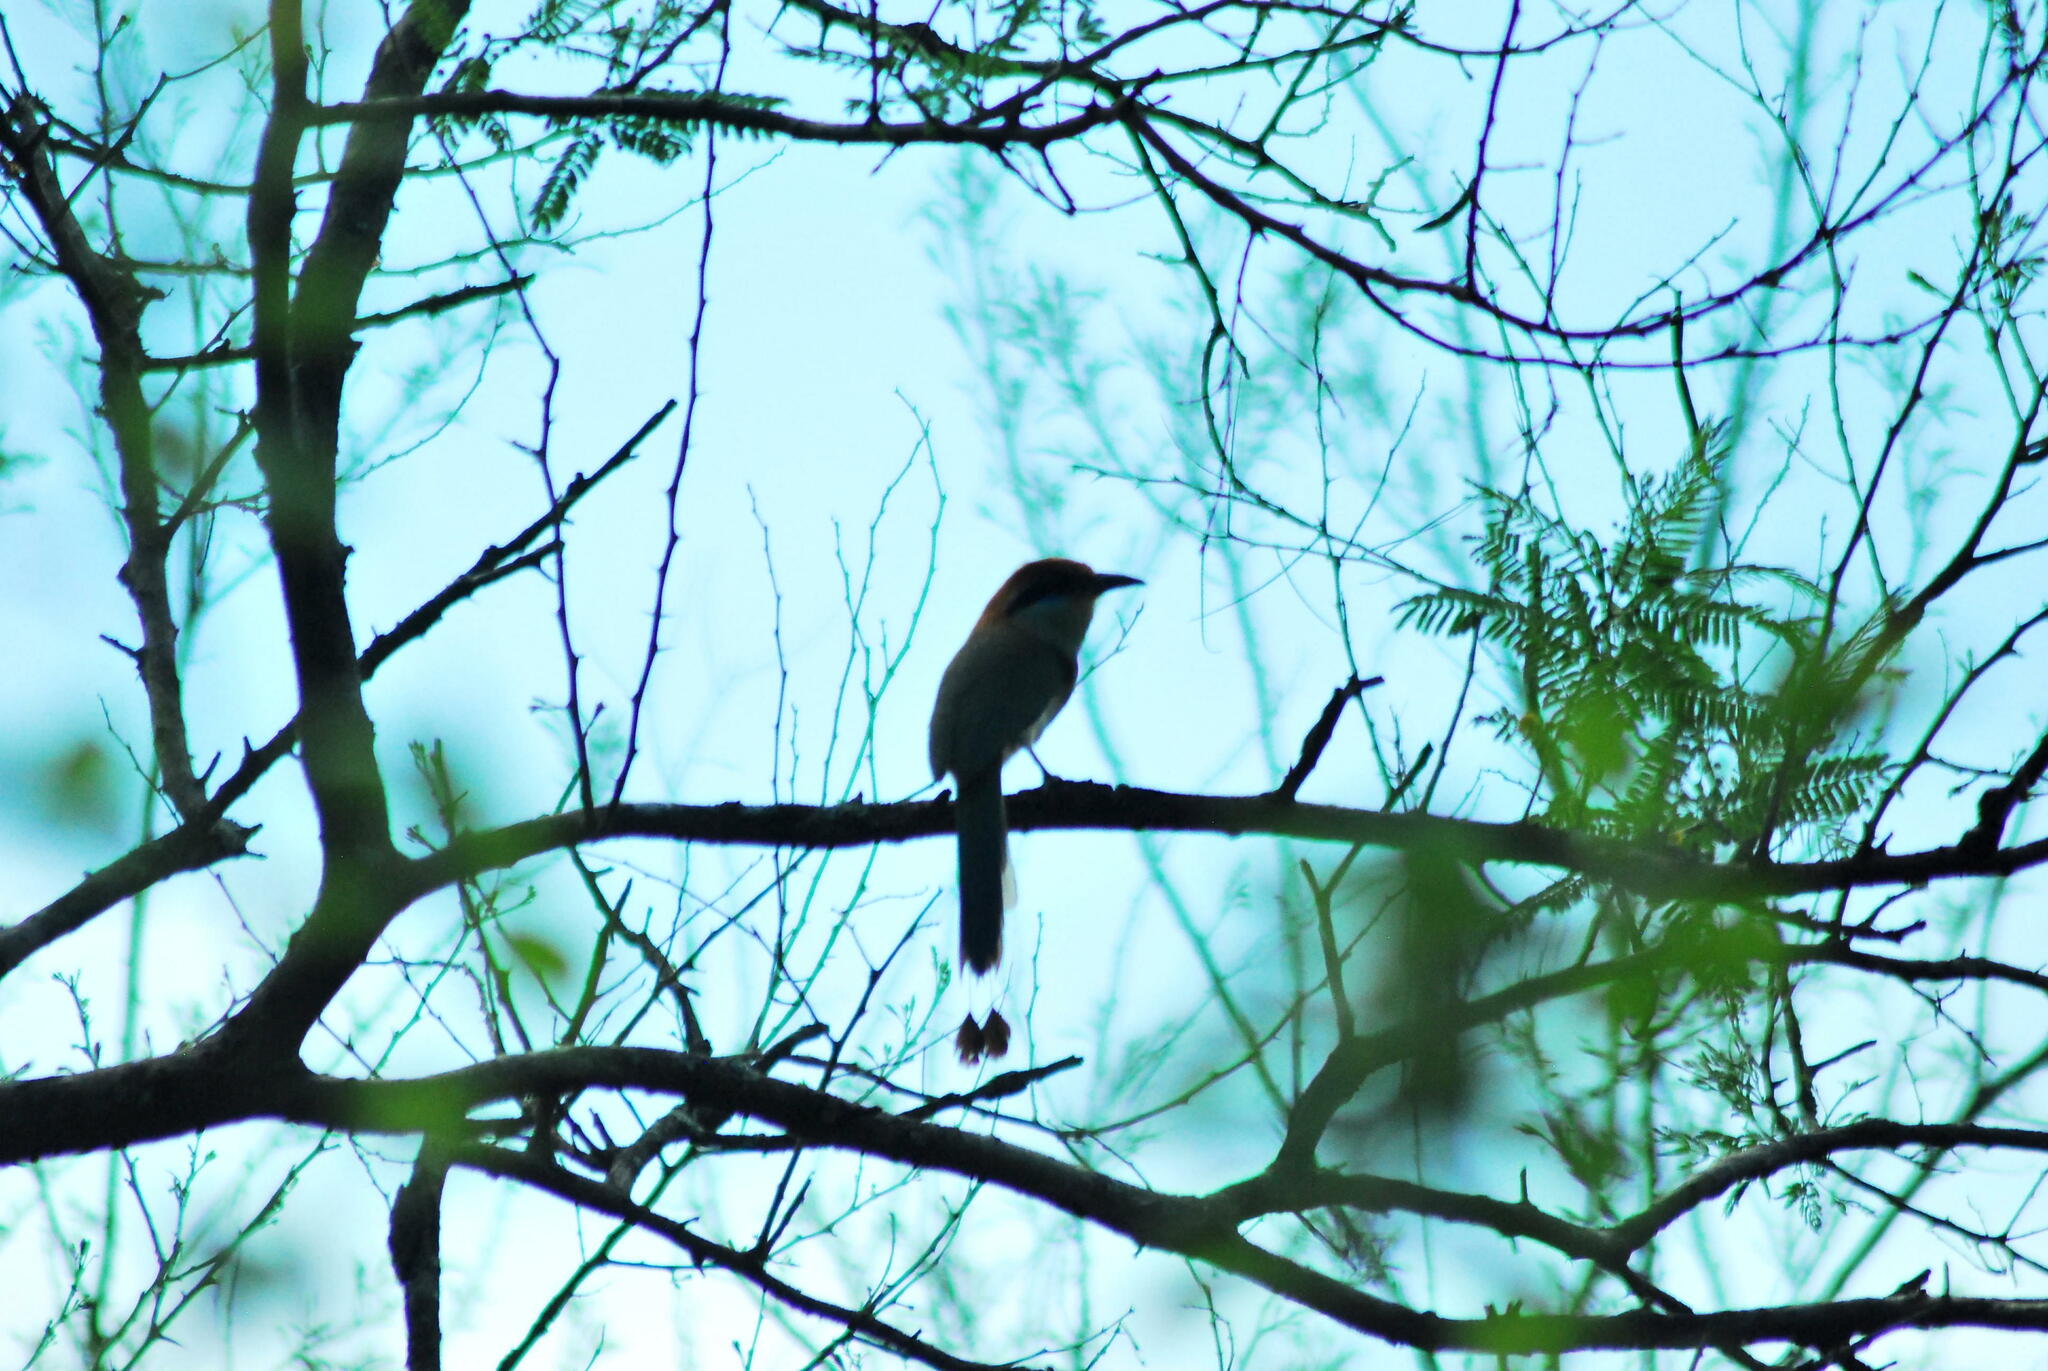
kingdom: Animalia
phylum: Chordata
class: Aves
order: Coraciiformes
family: Momotidae
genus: Momotus
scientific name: Momotus mexicanus
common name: Russet-crowned motmot
